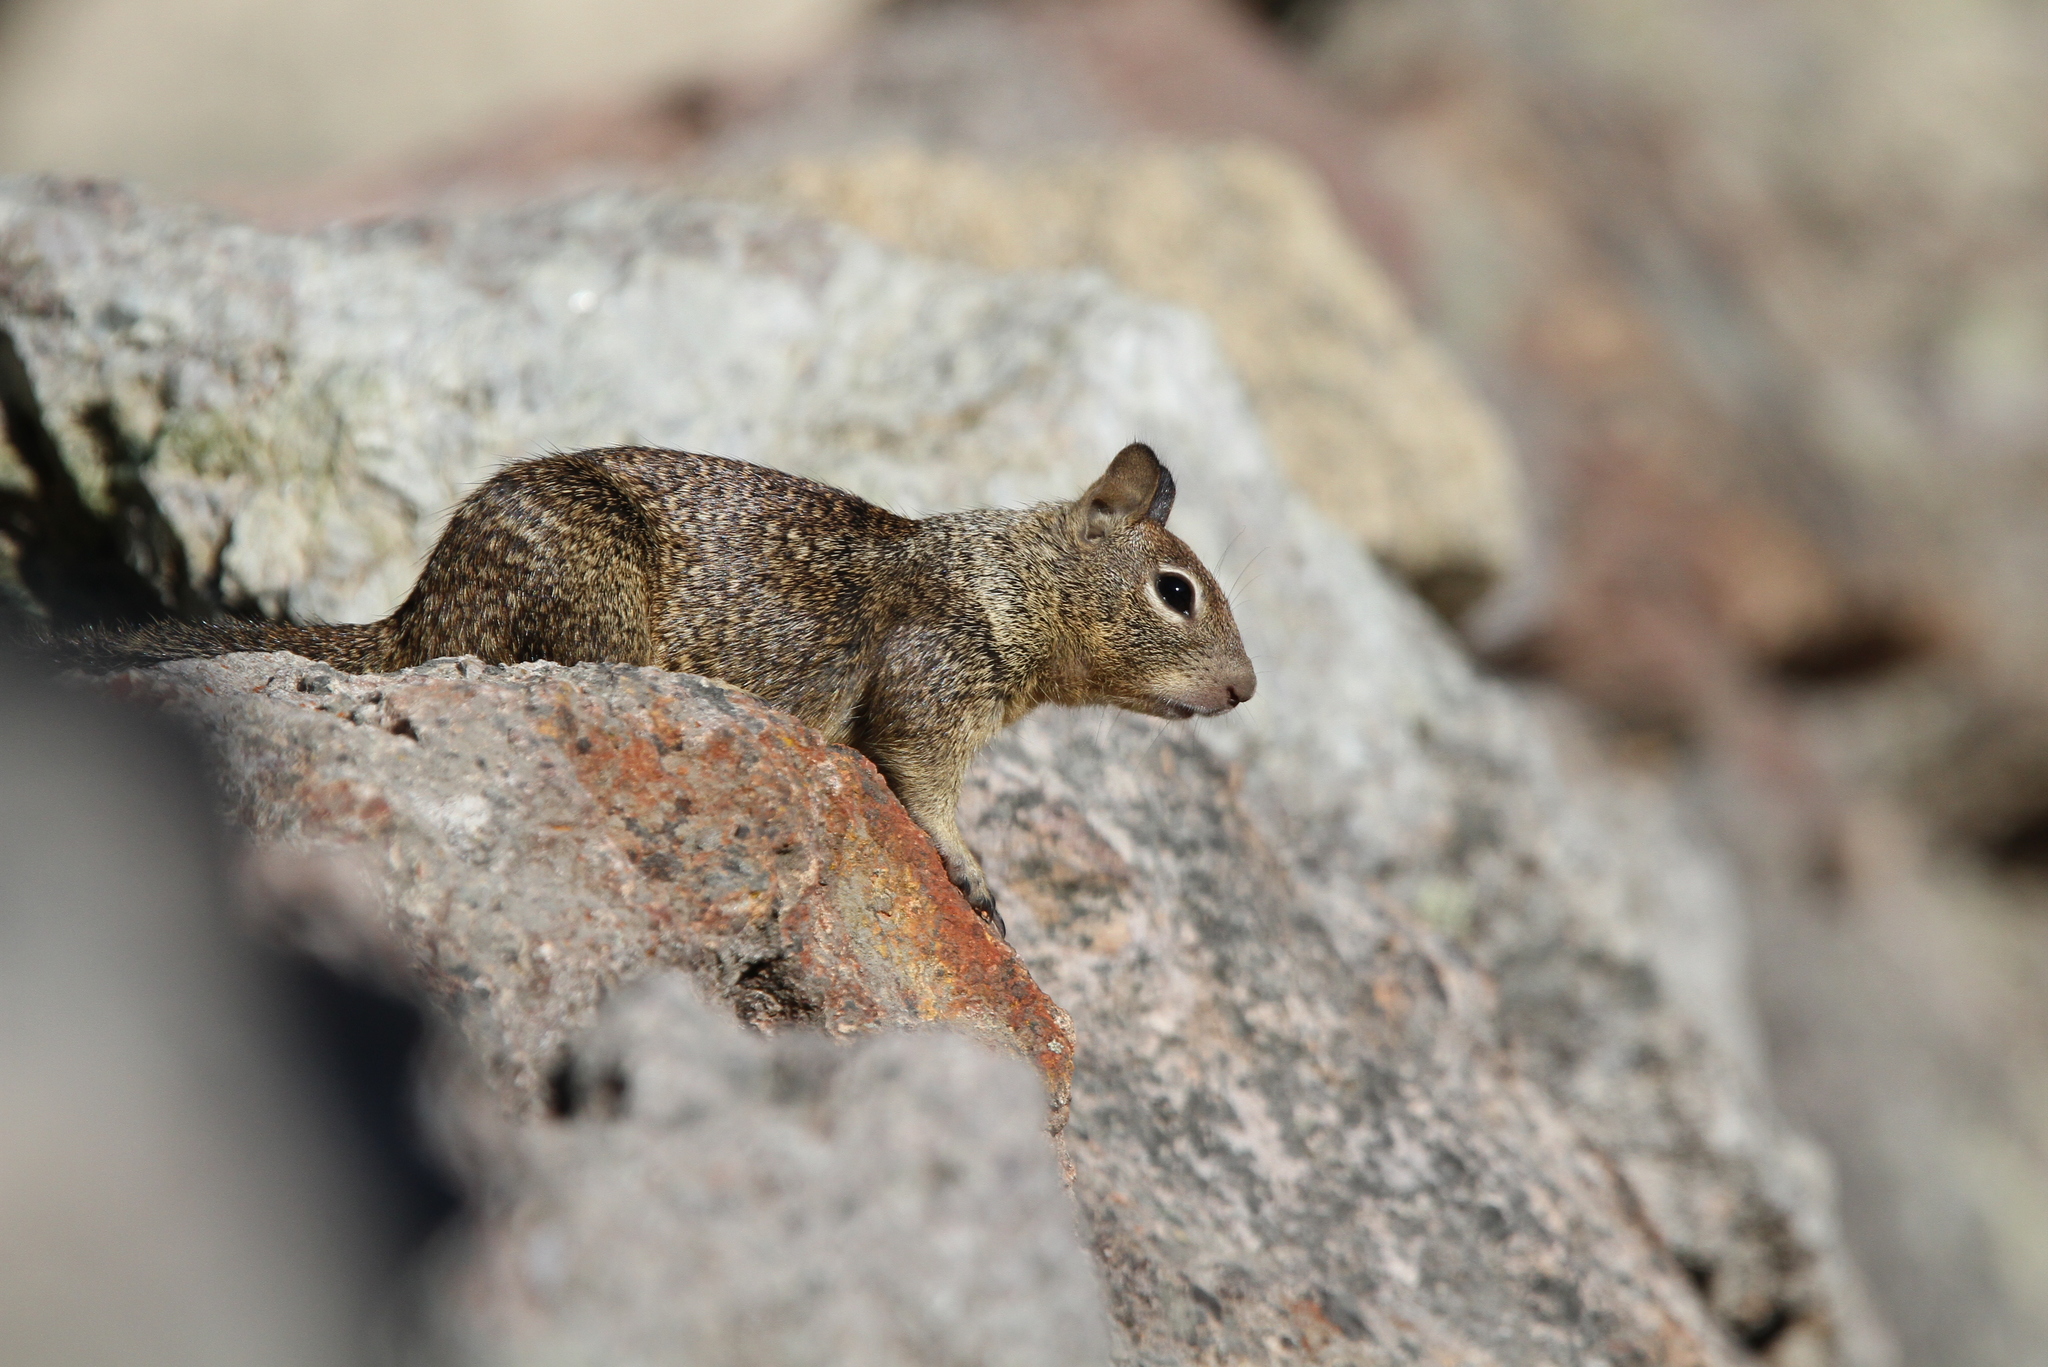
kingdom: Animalia
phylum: Chordata
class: Mammalia
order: Rodentia
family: Sciuridae
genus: Otospermophilus
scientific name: Otospermophilus beecheyi
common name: California ground squirrel
